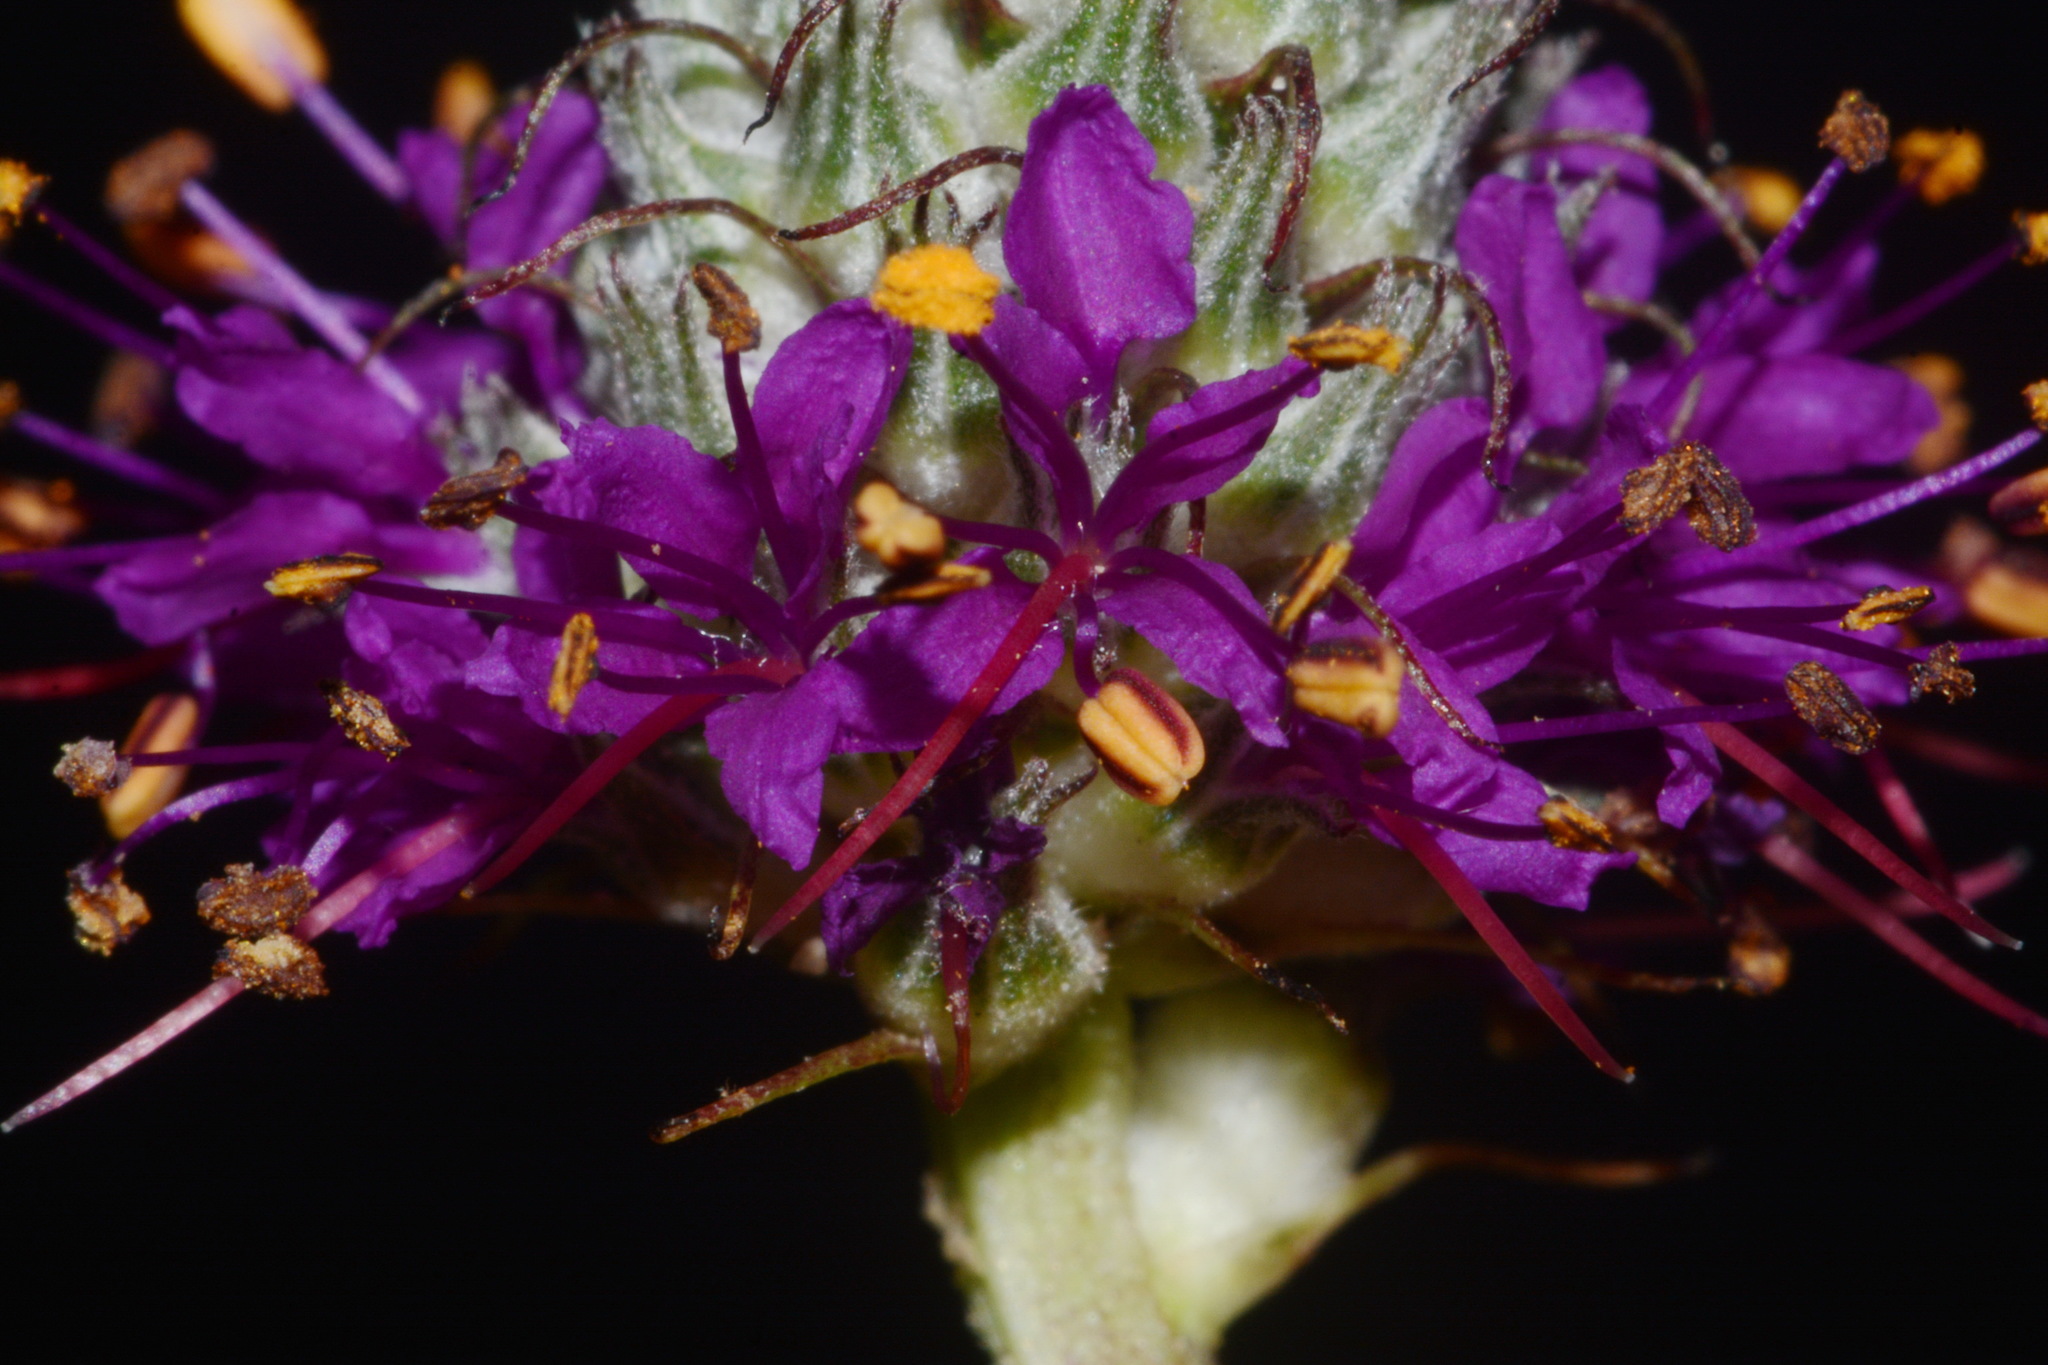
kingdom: Plantae
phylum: Tracheophyta
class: Magnoliopsida
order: Fabales
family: Fabaceae
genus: Dalea
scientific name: Dalea cahaba
